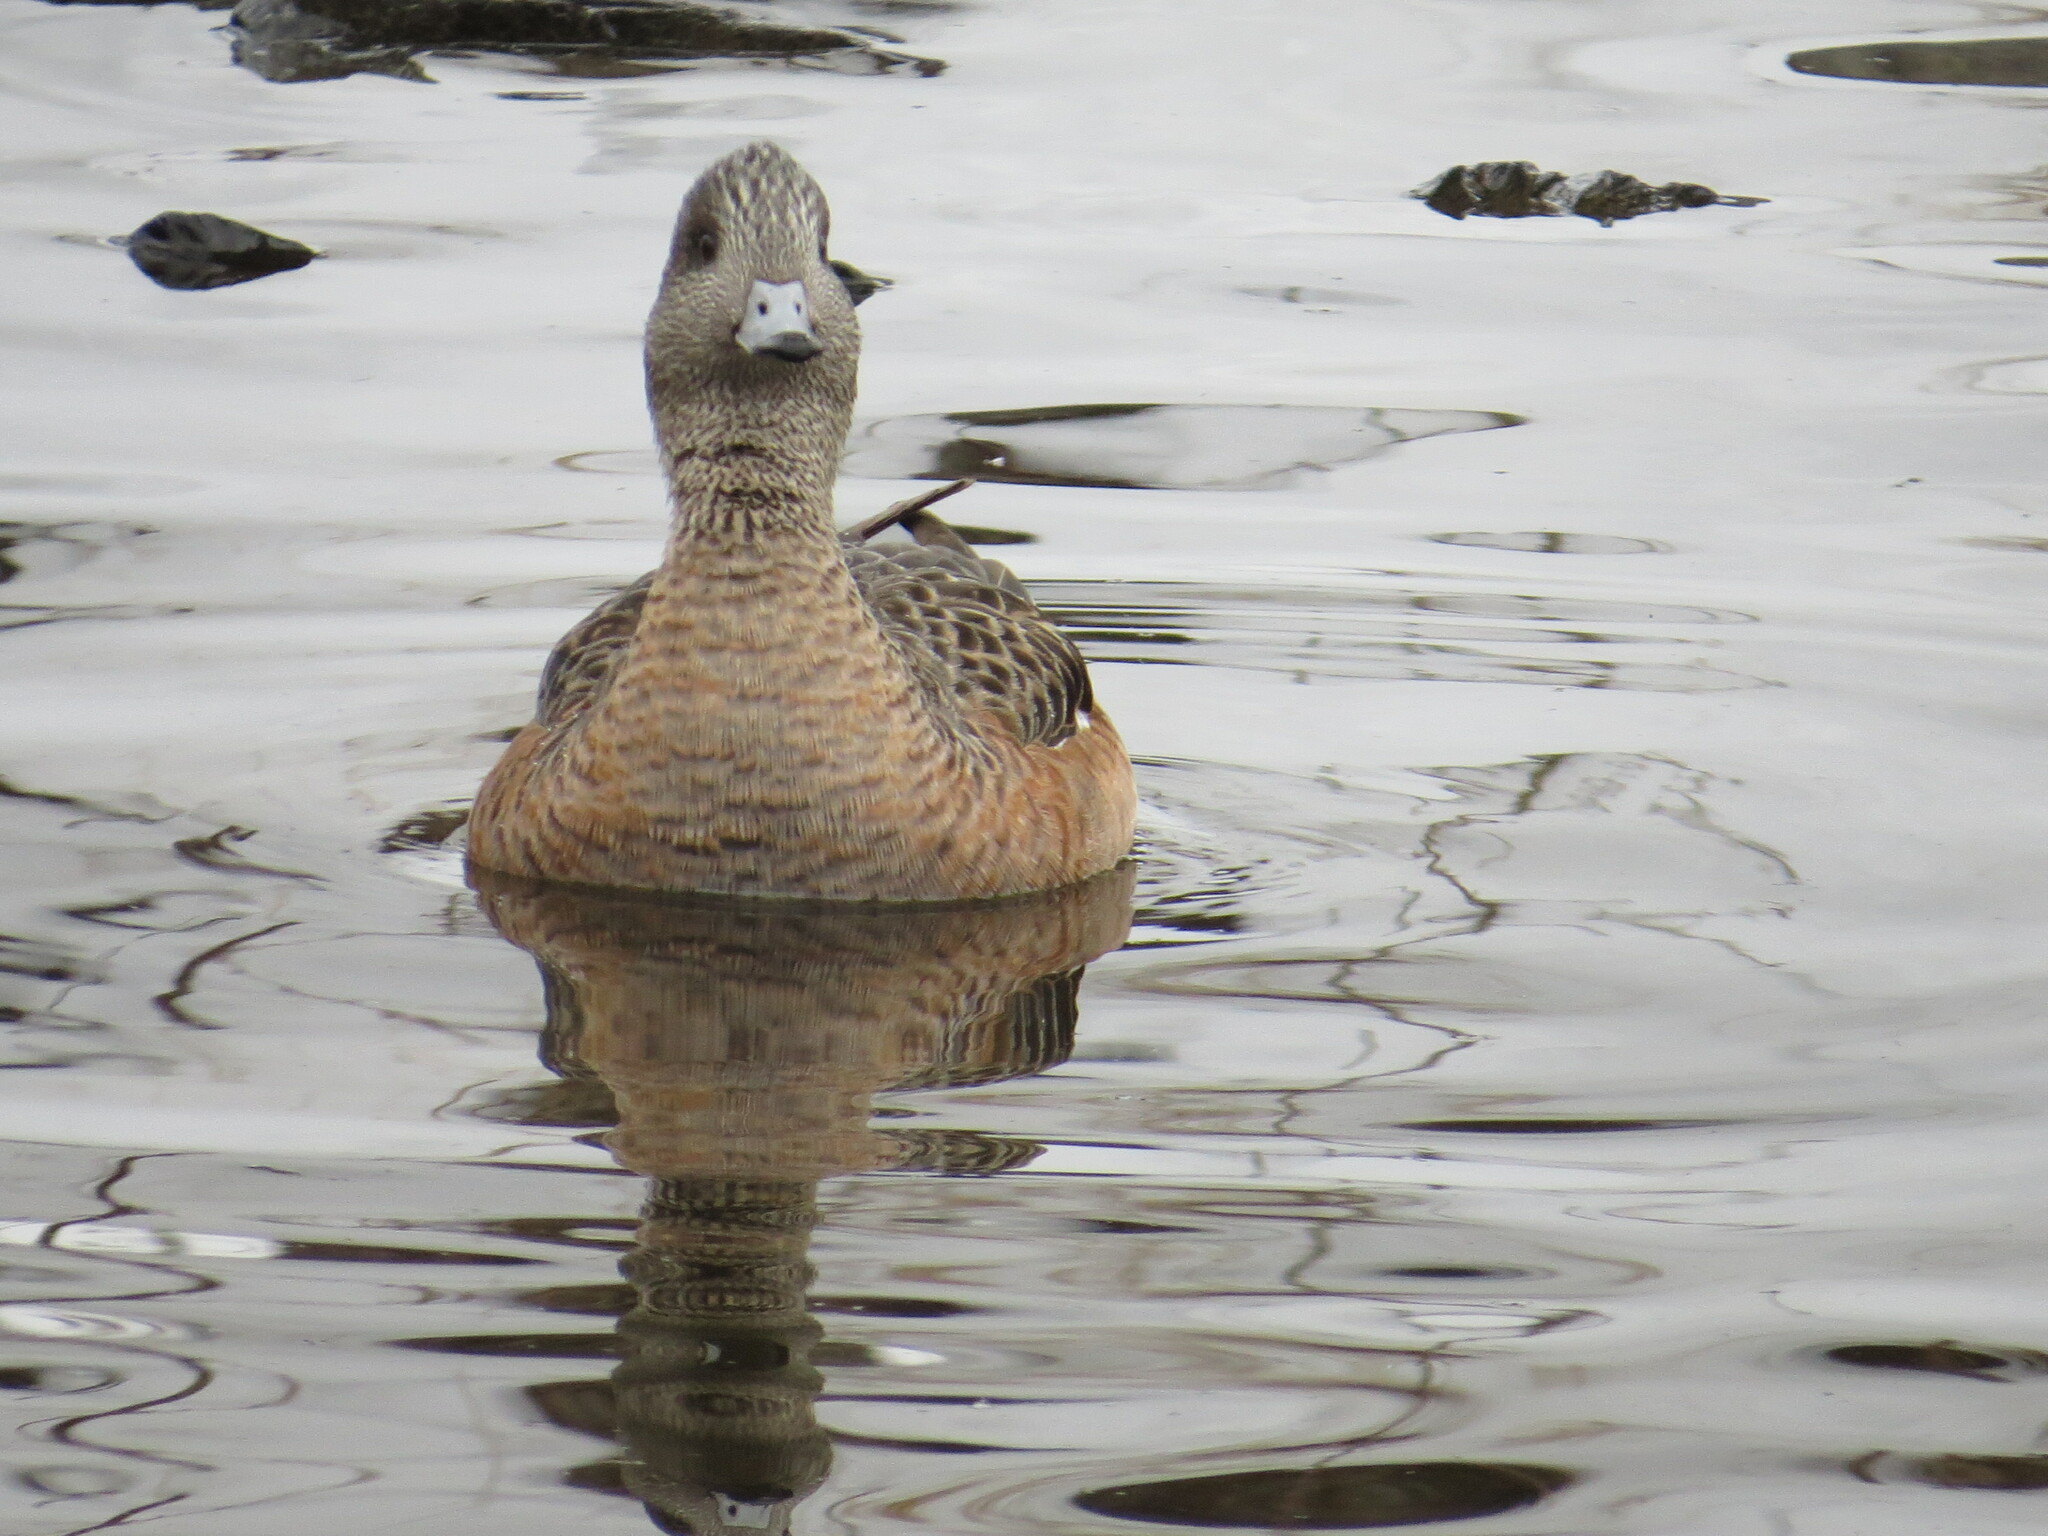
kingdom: Animalia
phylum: Chordata
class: Aves
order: Anseriformes
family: Anatidae
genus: Mareca
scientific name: Mareca americana
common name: American wigeon
